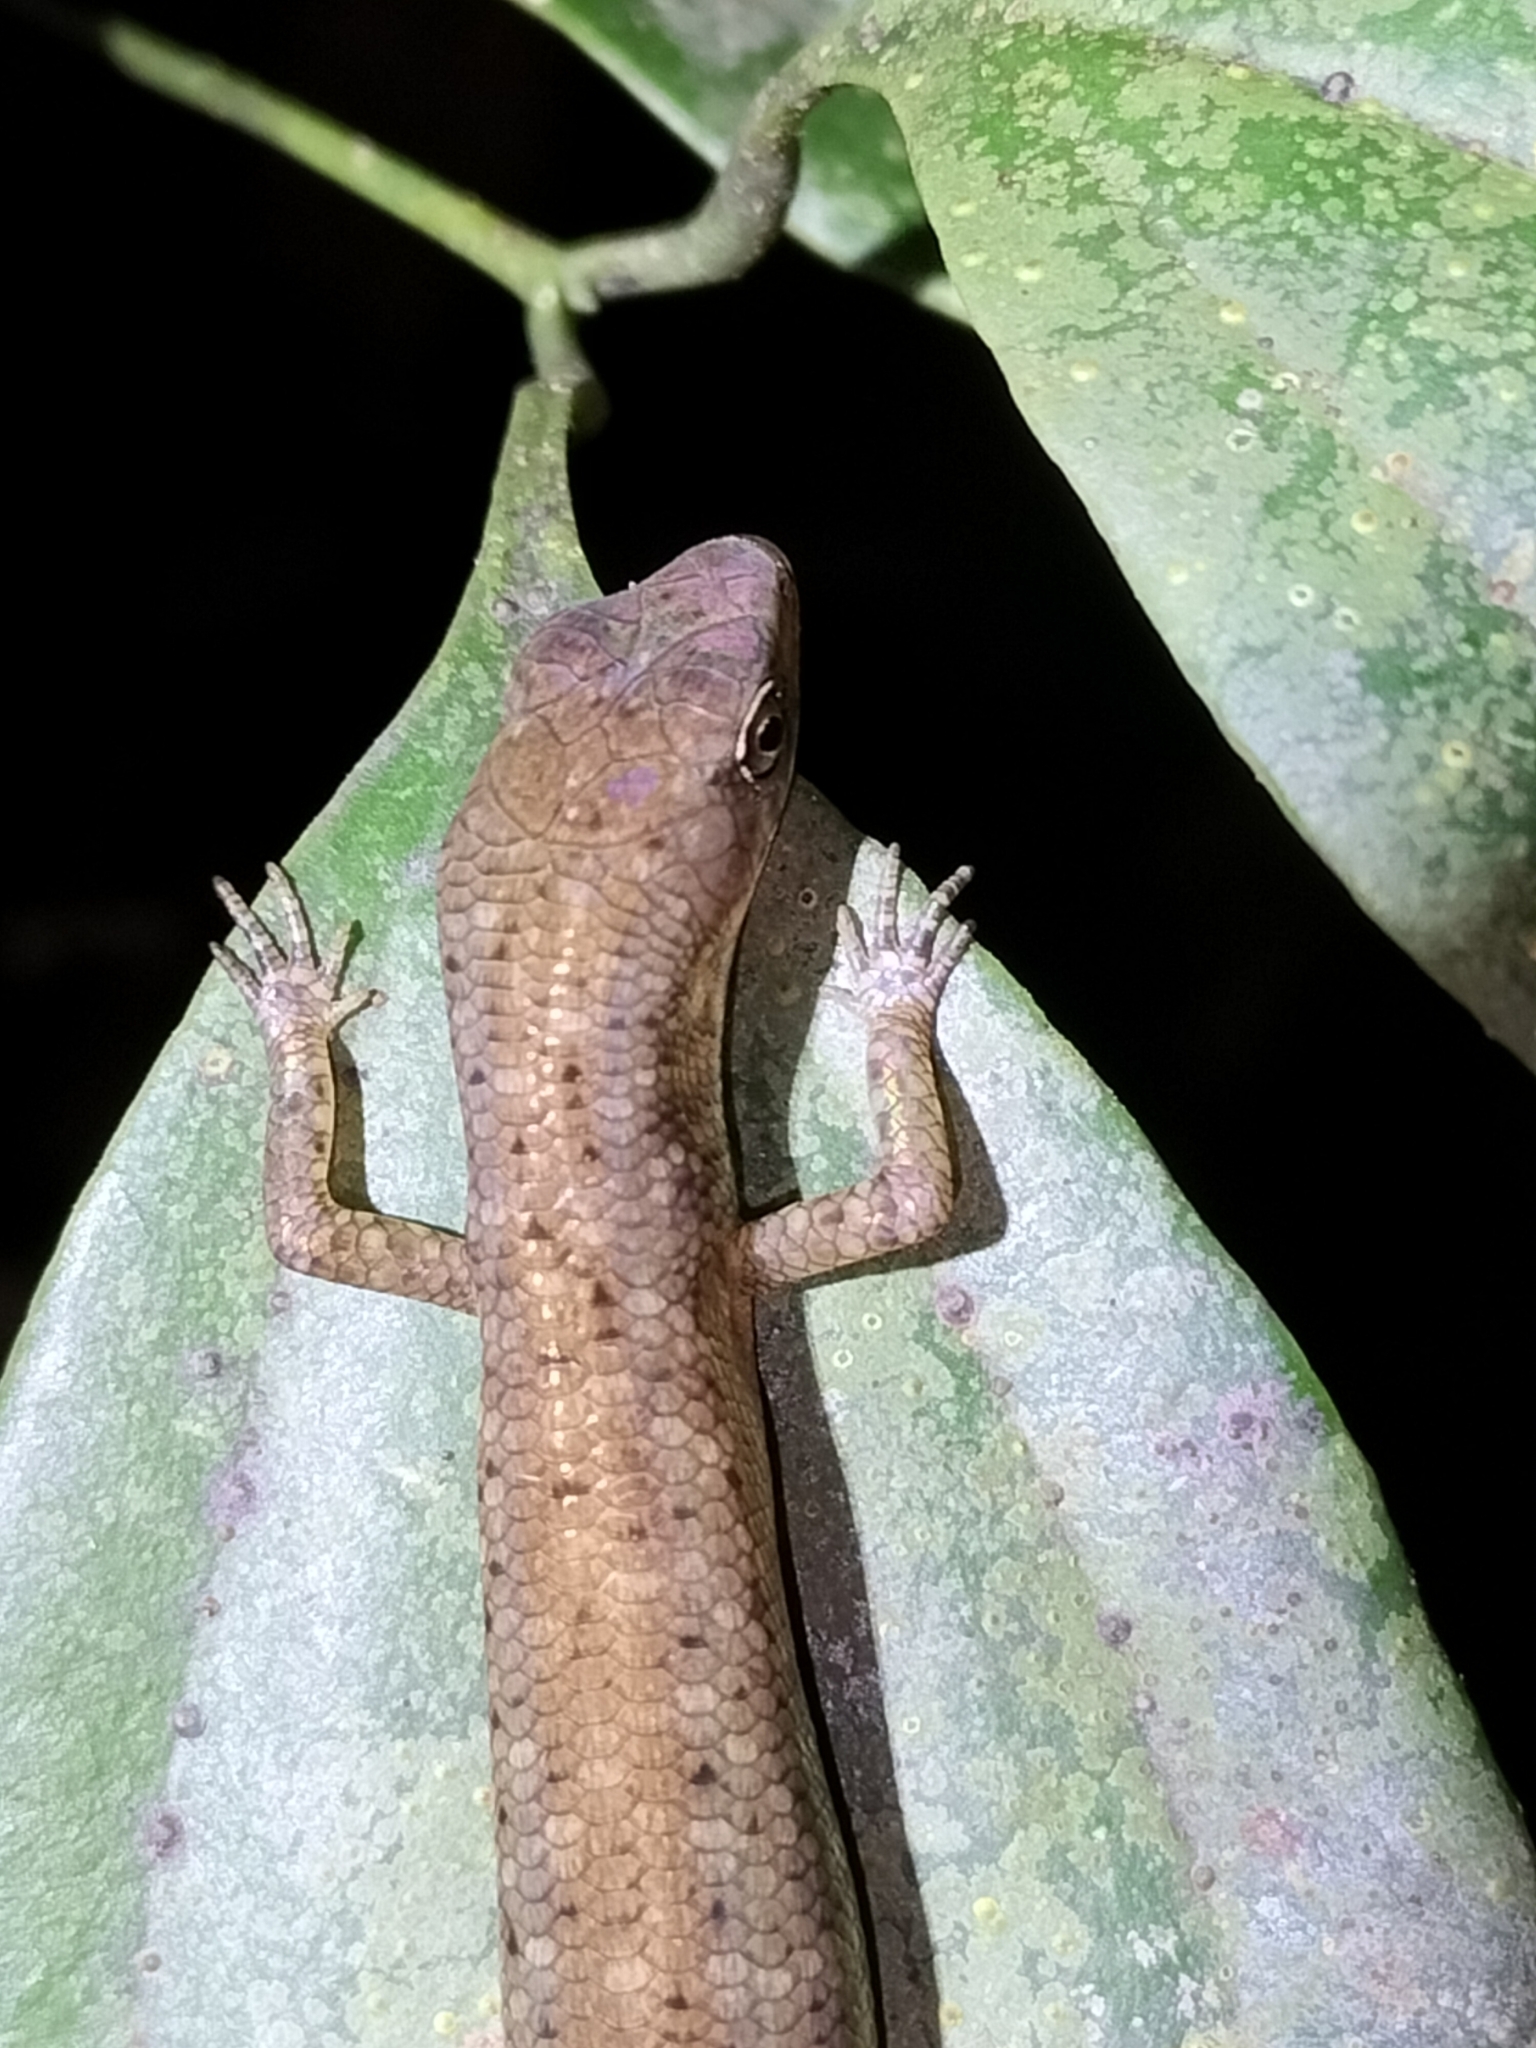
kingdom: Animalia
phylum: Chordata
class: Squamata
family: Scincidae
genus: Saproscincus
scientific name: Saproscincus basiliscus
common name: Pale-lipped shadeskink
